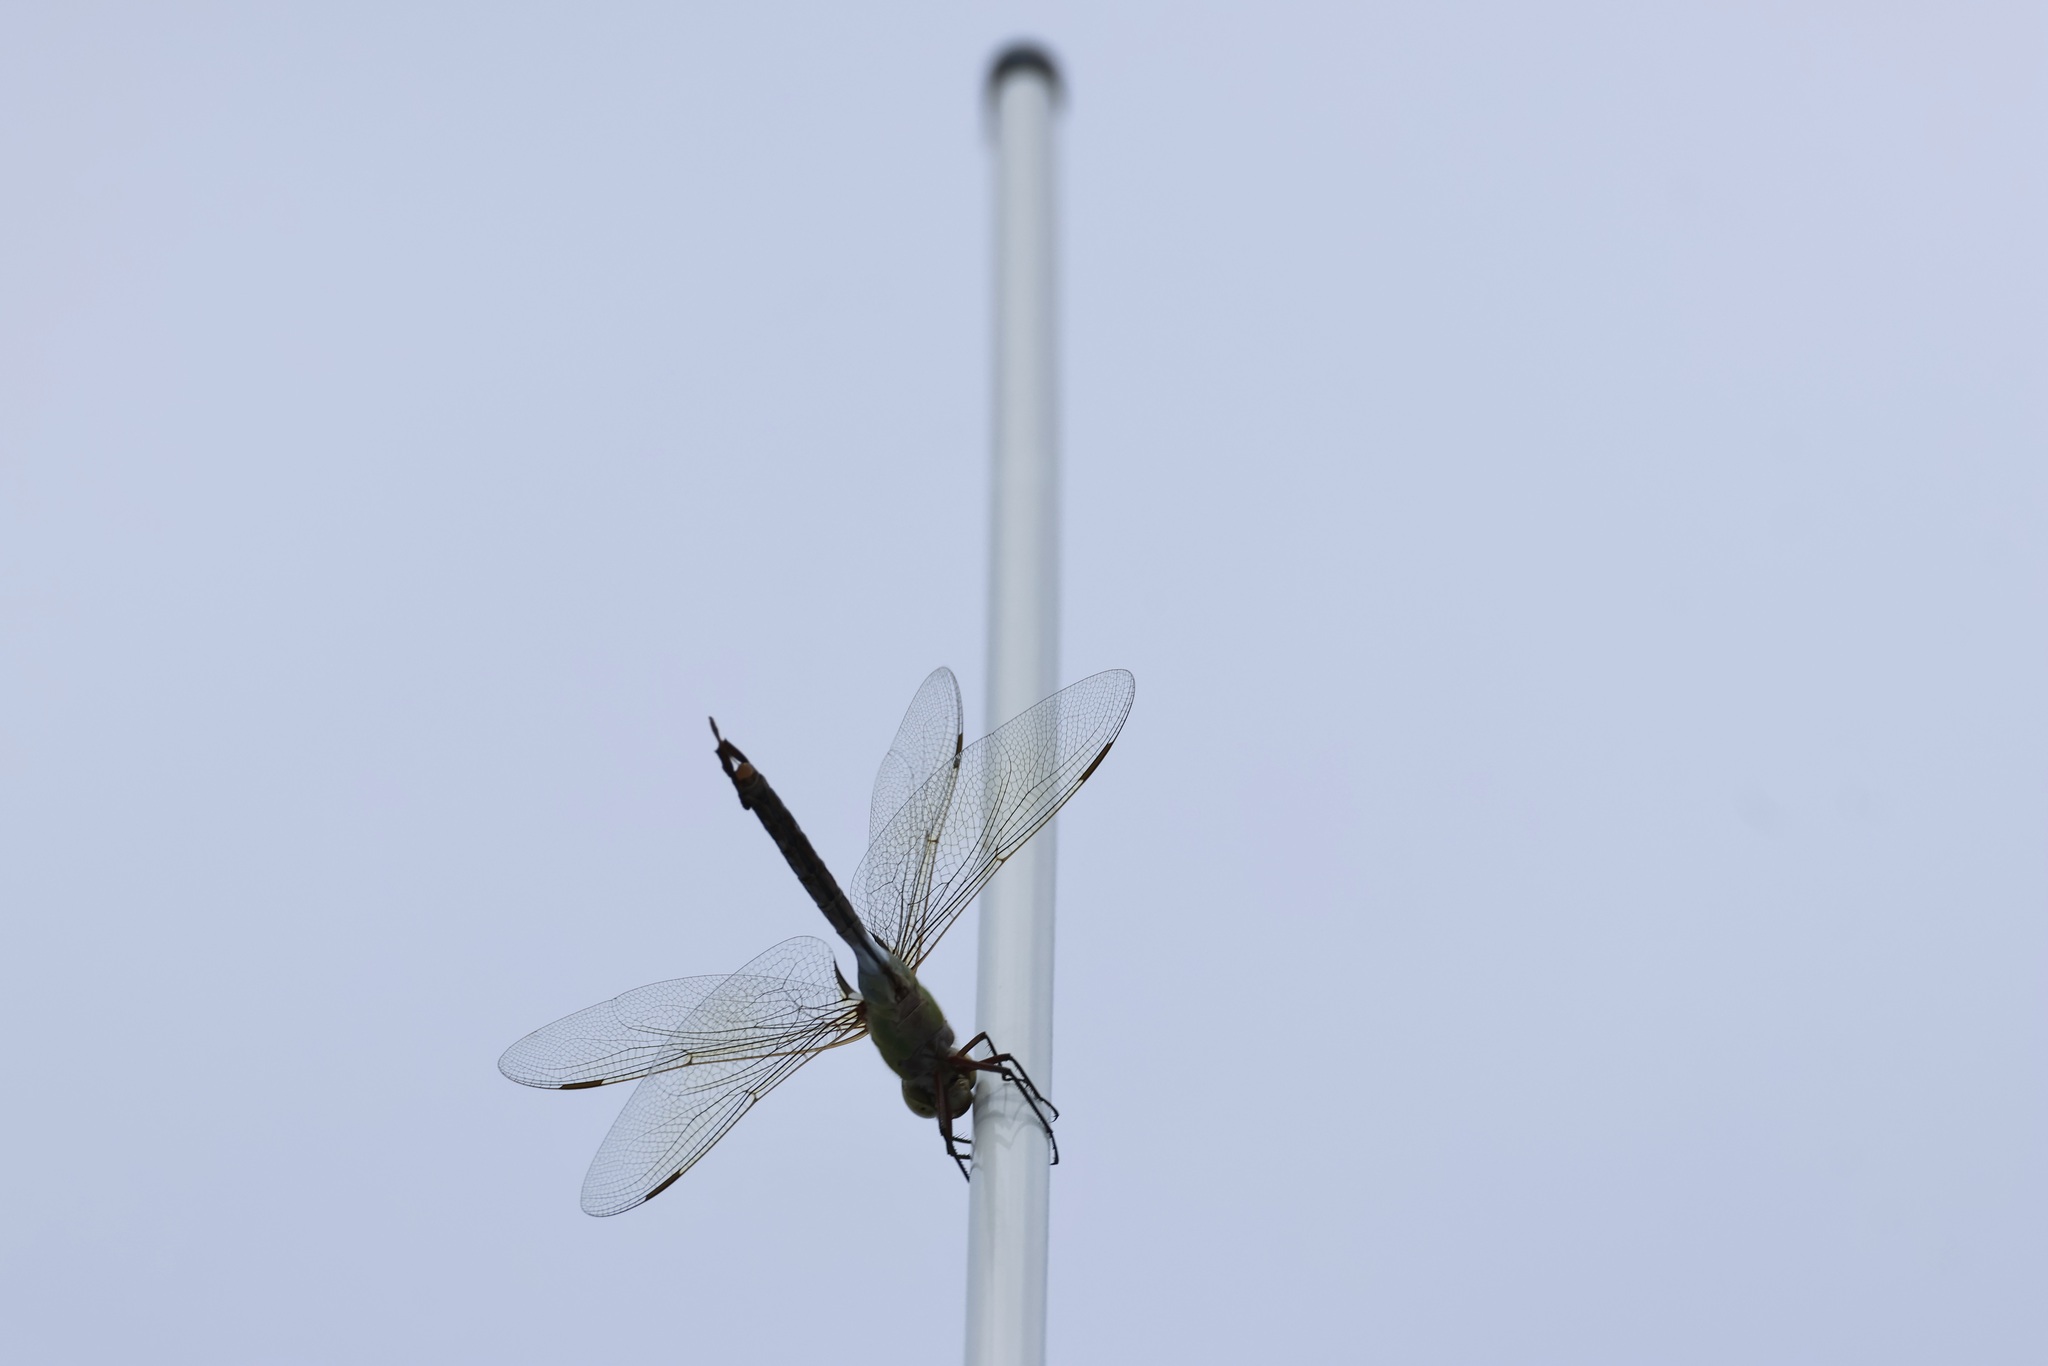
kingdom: Animalia
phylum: Arthropoda
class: Insecta
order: Odonata
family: Aeshnidae
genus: Anax
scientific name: Anax junius
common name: Common green darner
